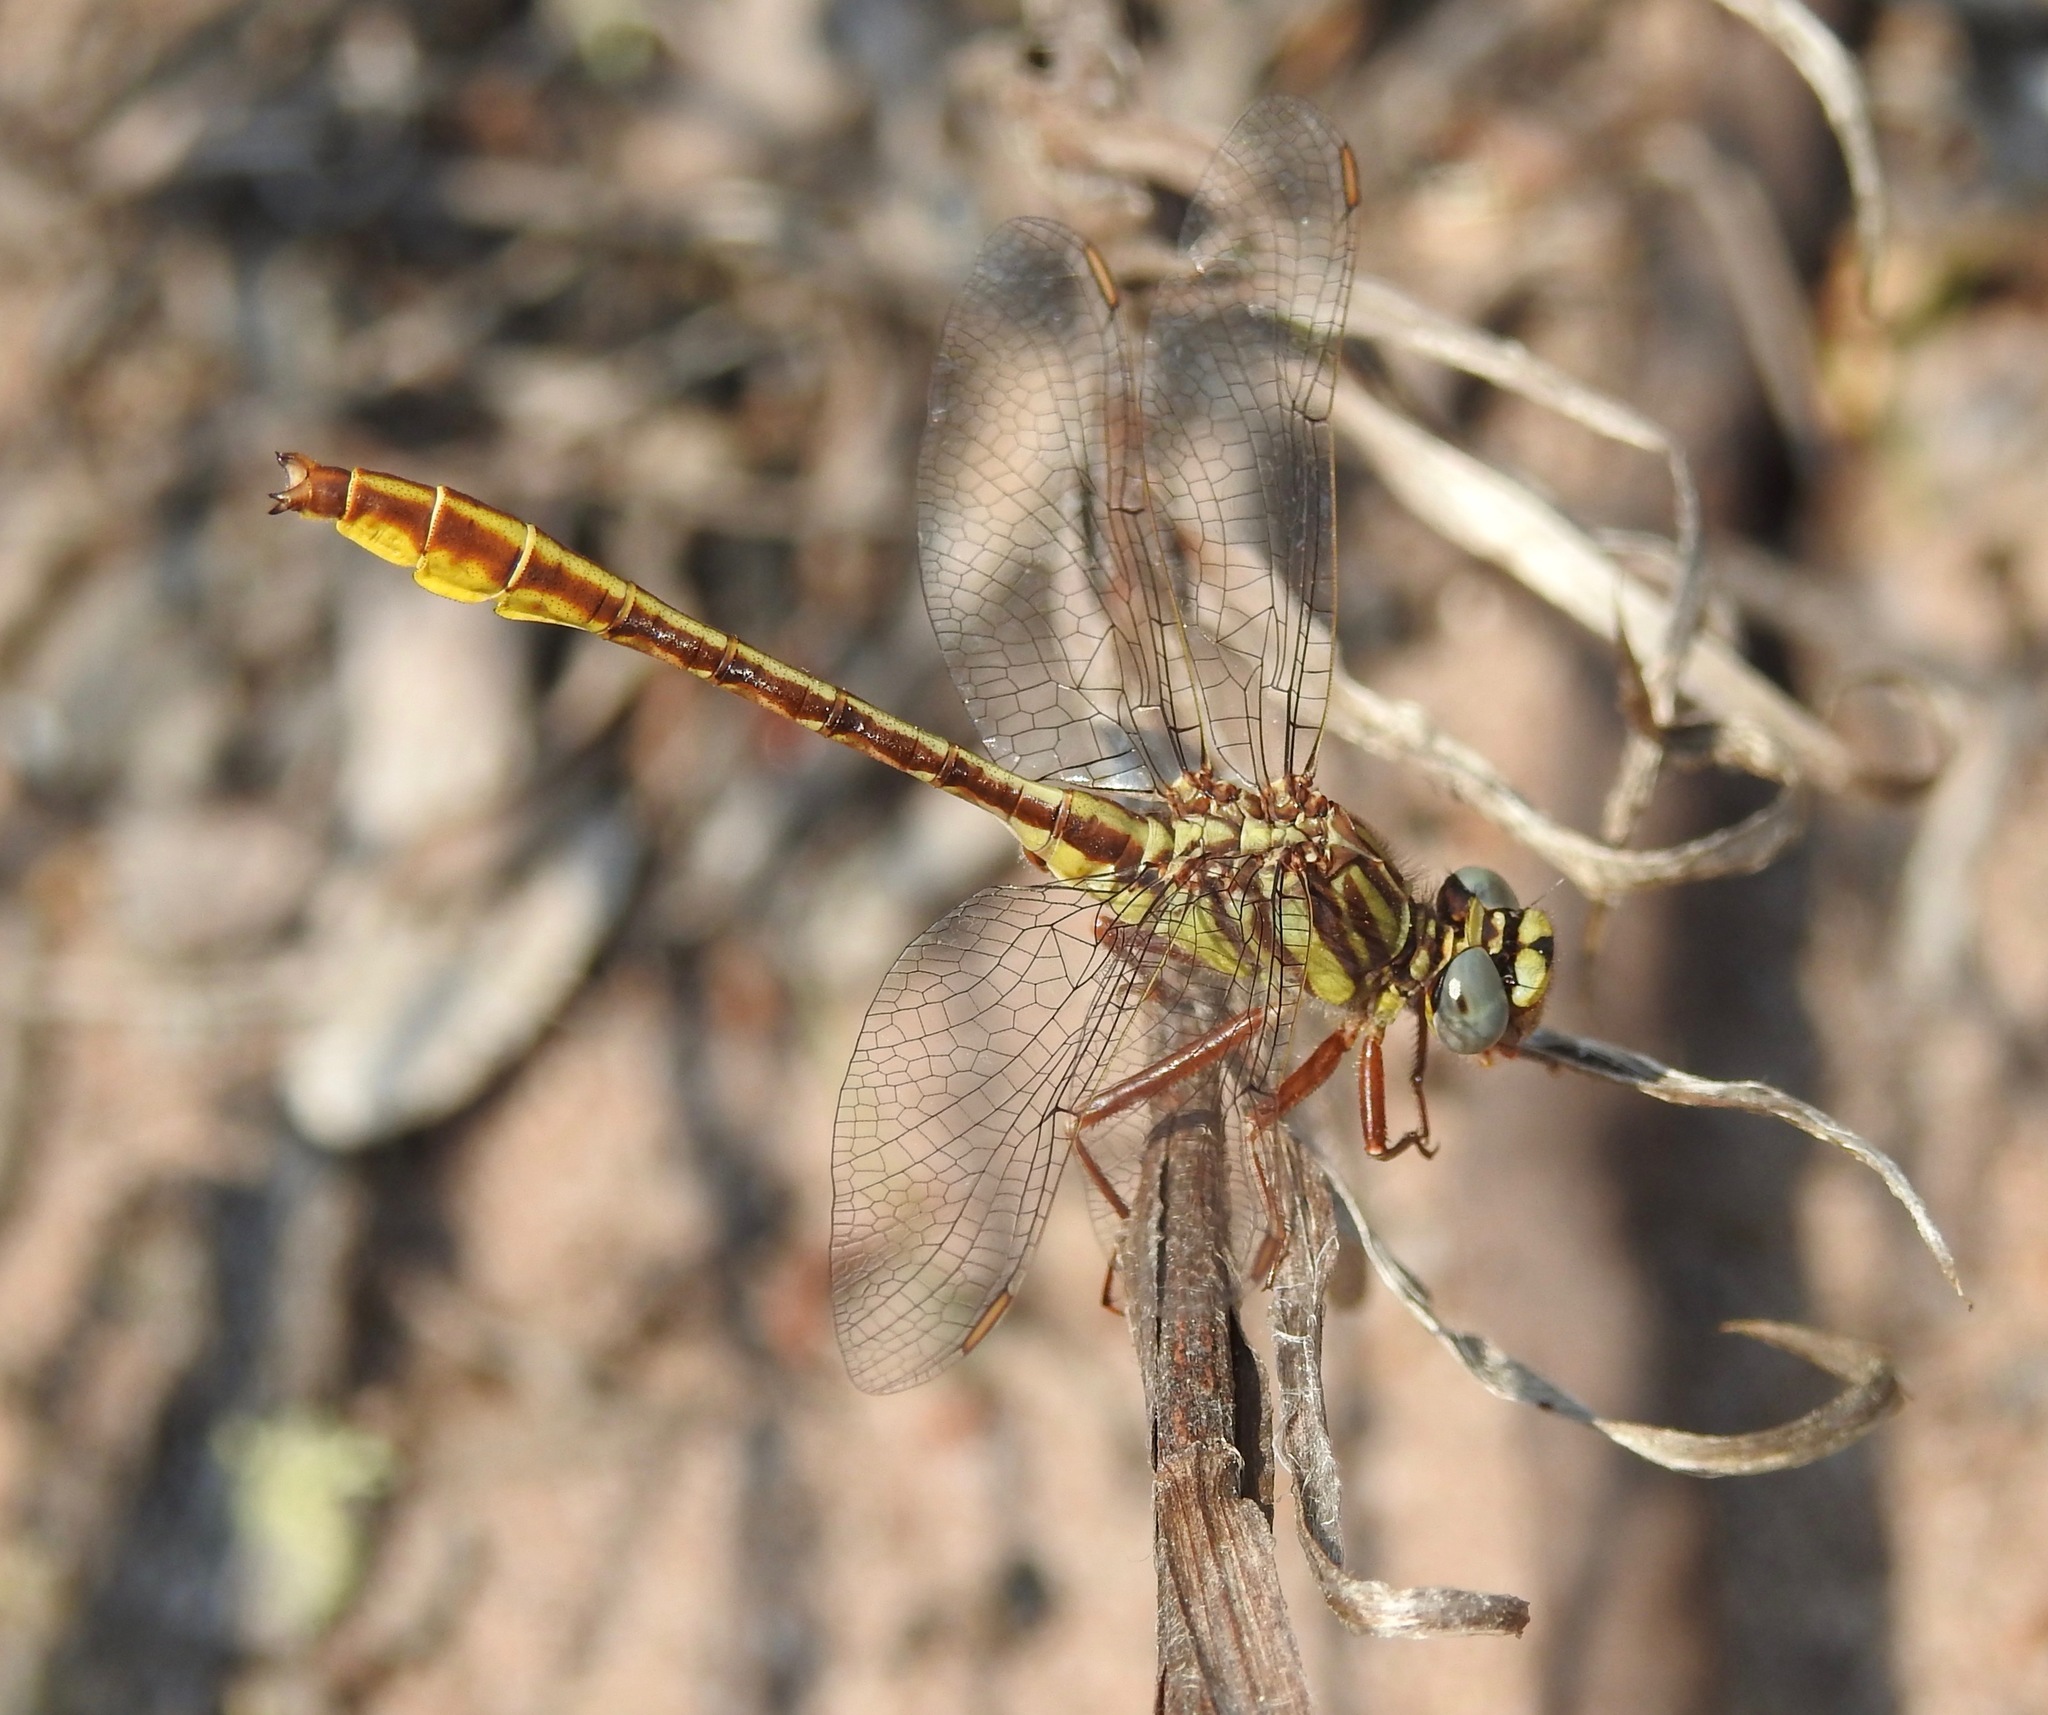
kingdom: Animalia
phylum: Arthropoda
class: Insecta
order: Odonata
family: Gomphidae
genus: Phanogomphus
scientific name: Phanogomphus cavillaris
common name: Sandhill clubtail
